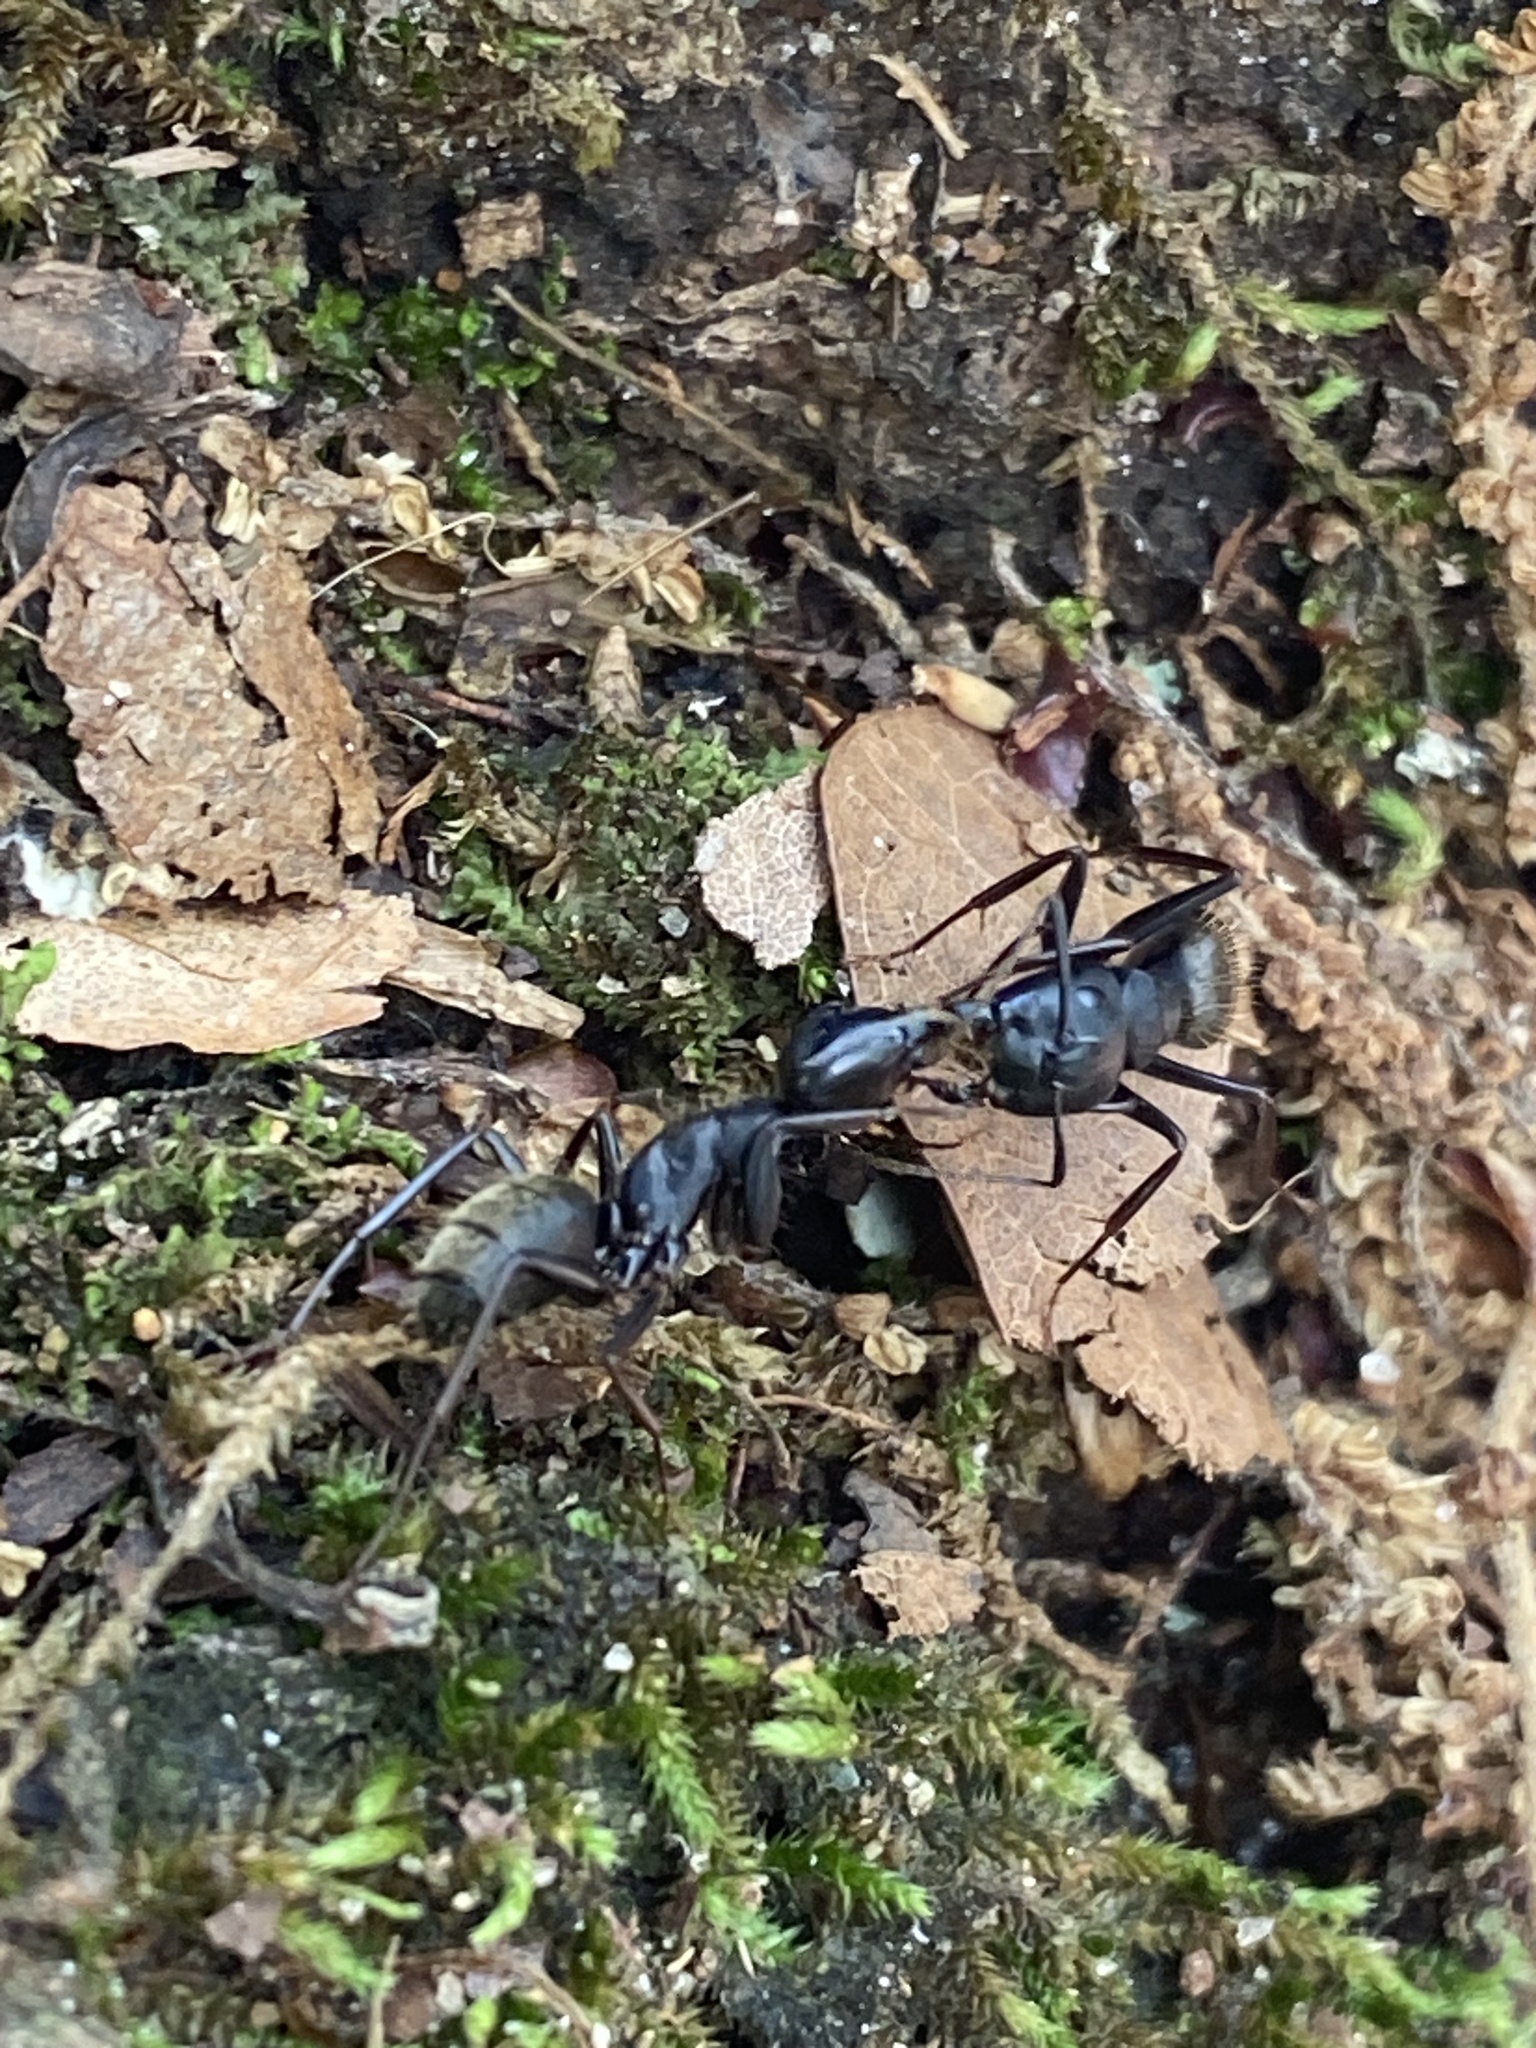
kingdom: Animalia
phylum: Arthropoda
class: Insecta
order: Hymenoptera
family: Formicidae
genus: Camponotus
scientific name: Camponotus pennsylvanicus
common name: Black carpenter ant
